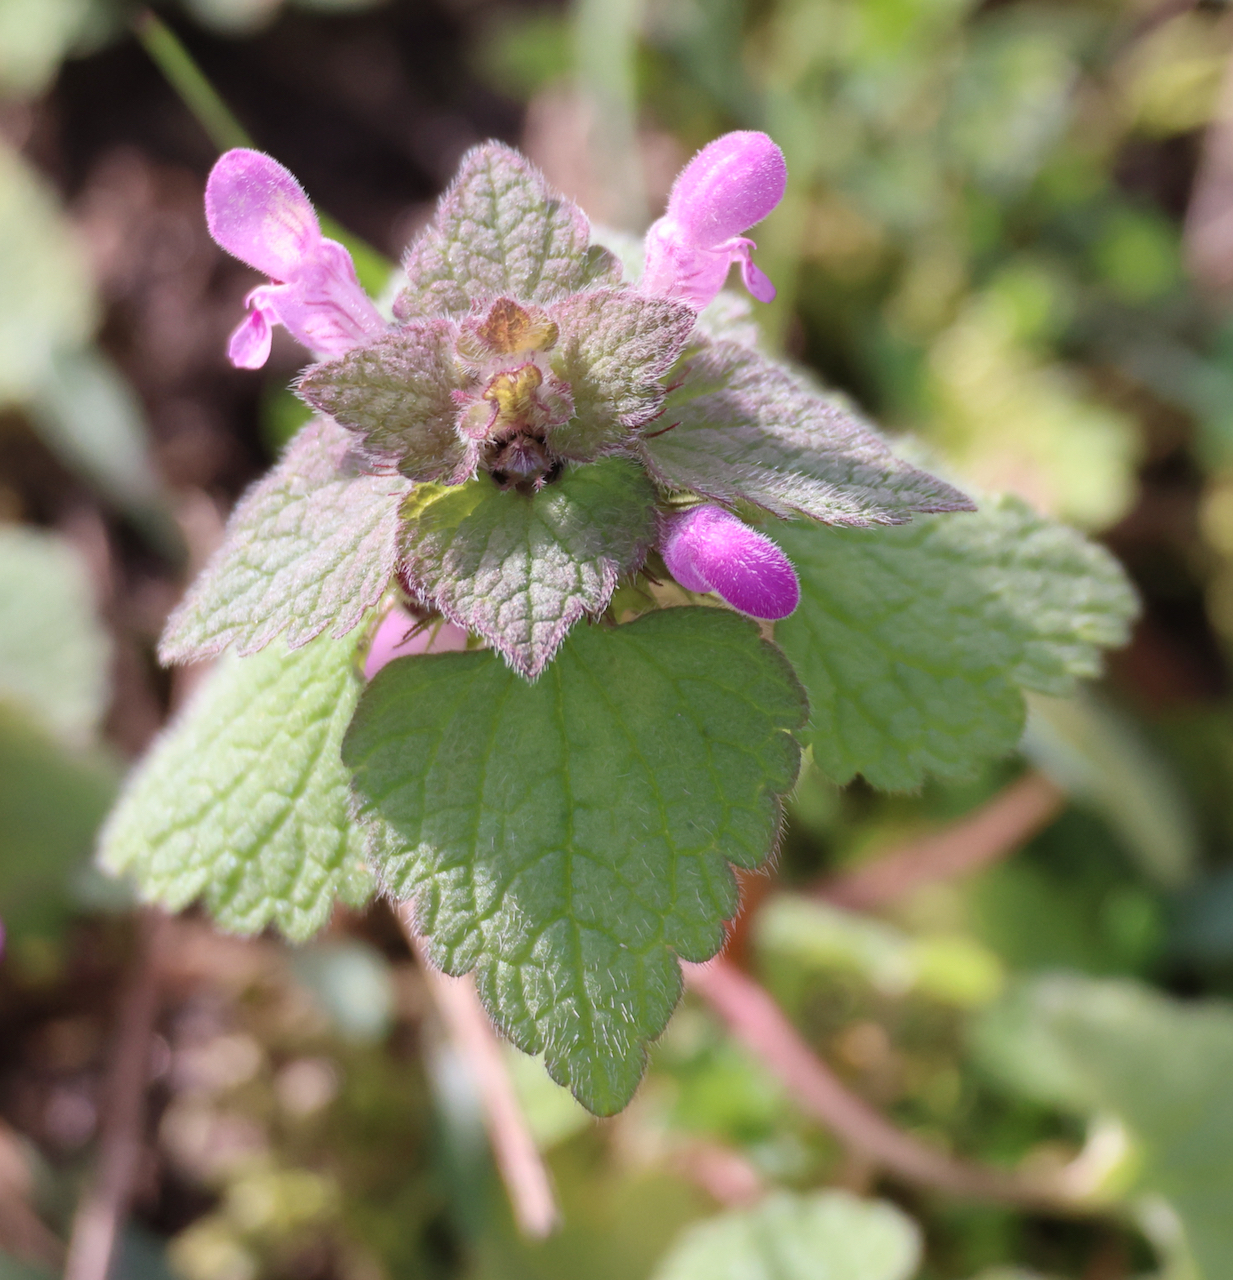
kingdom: Plantae
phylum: Tracheophyta
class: Magnoliopsida
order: Lamiales
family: Lamiaceae
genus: Lamium
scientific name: Lamium purpureum
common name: Red dead-nettle
